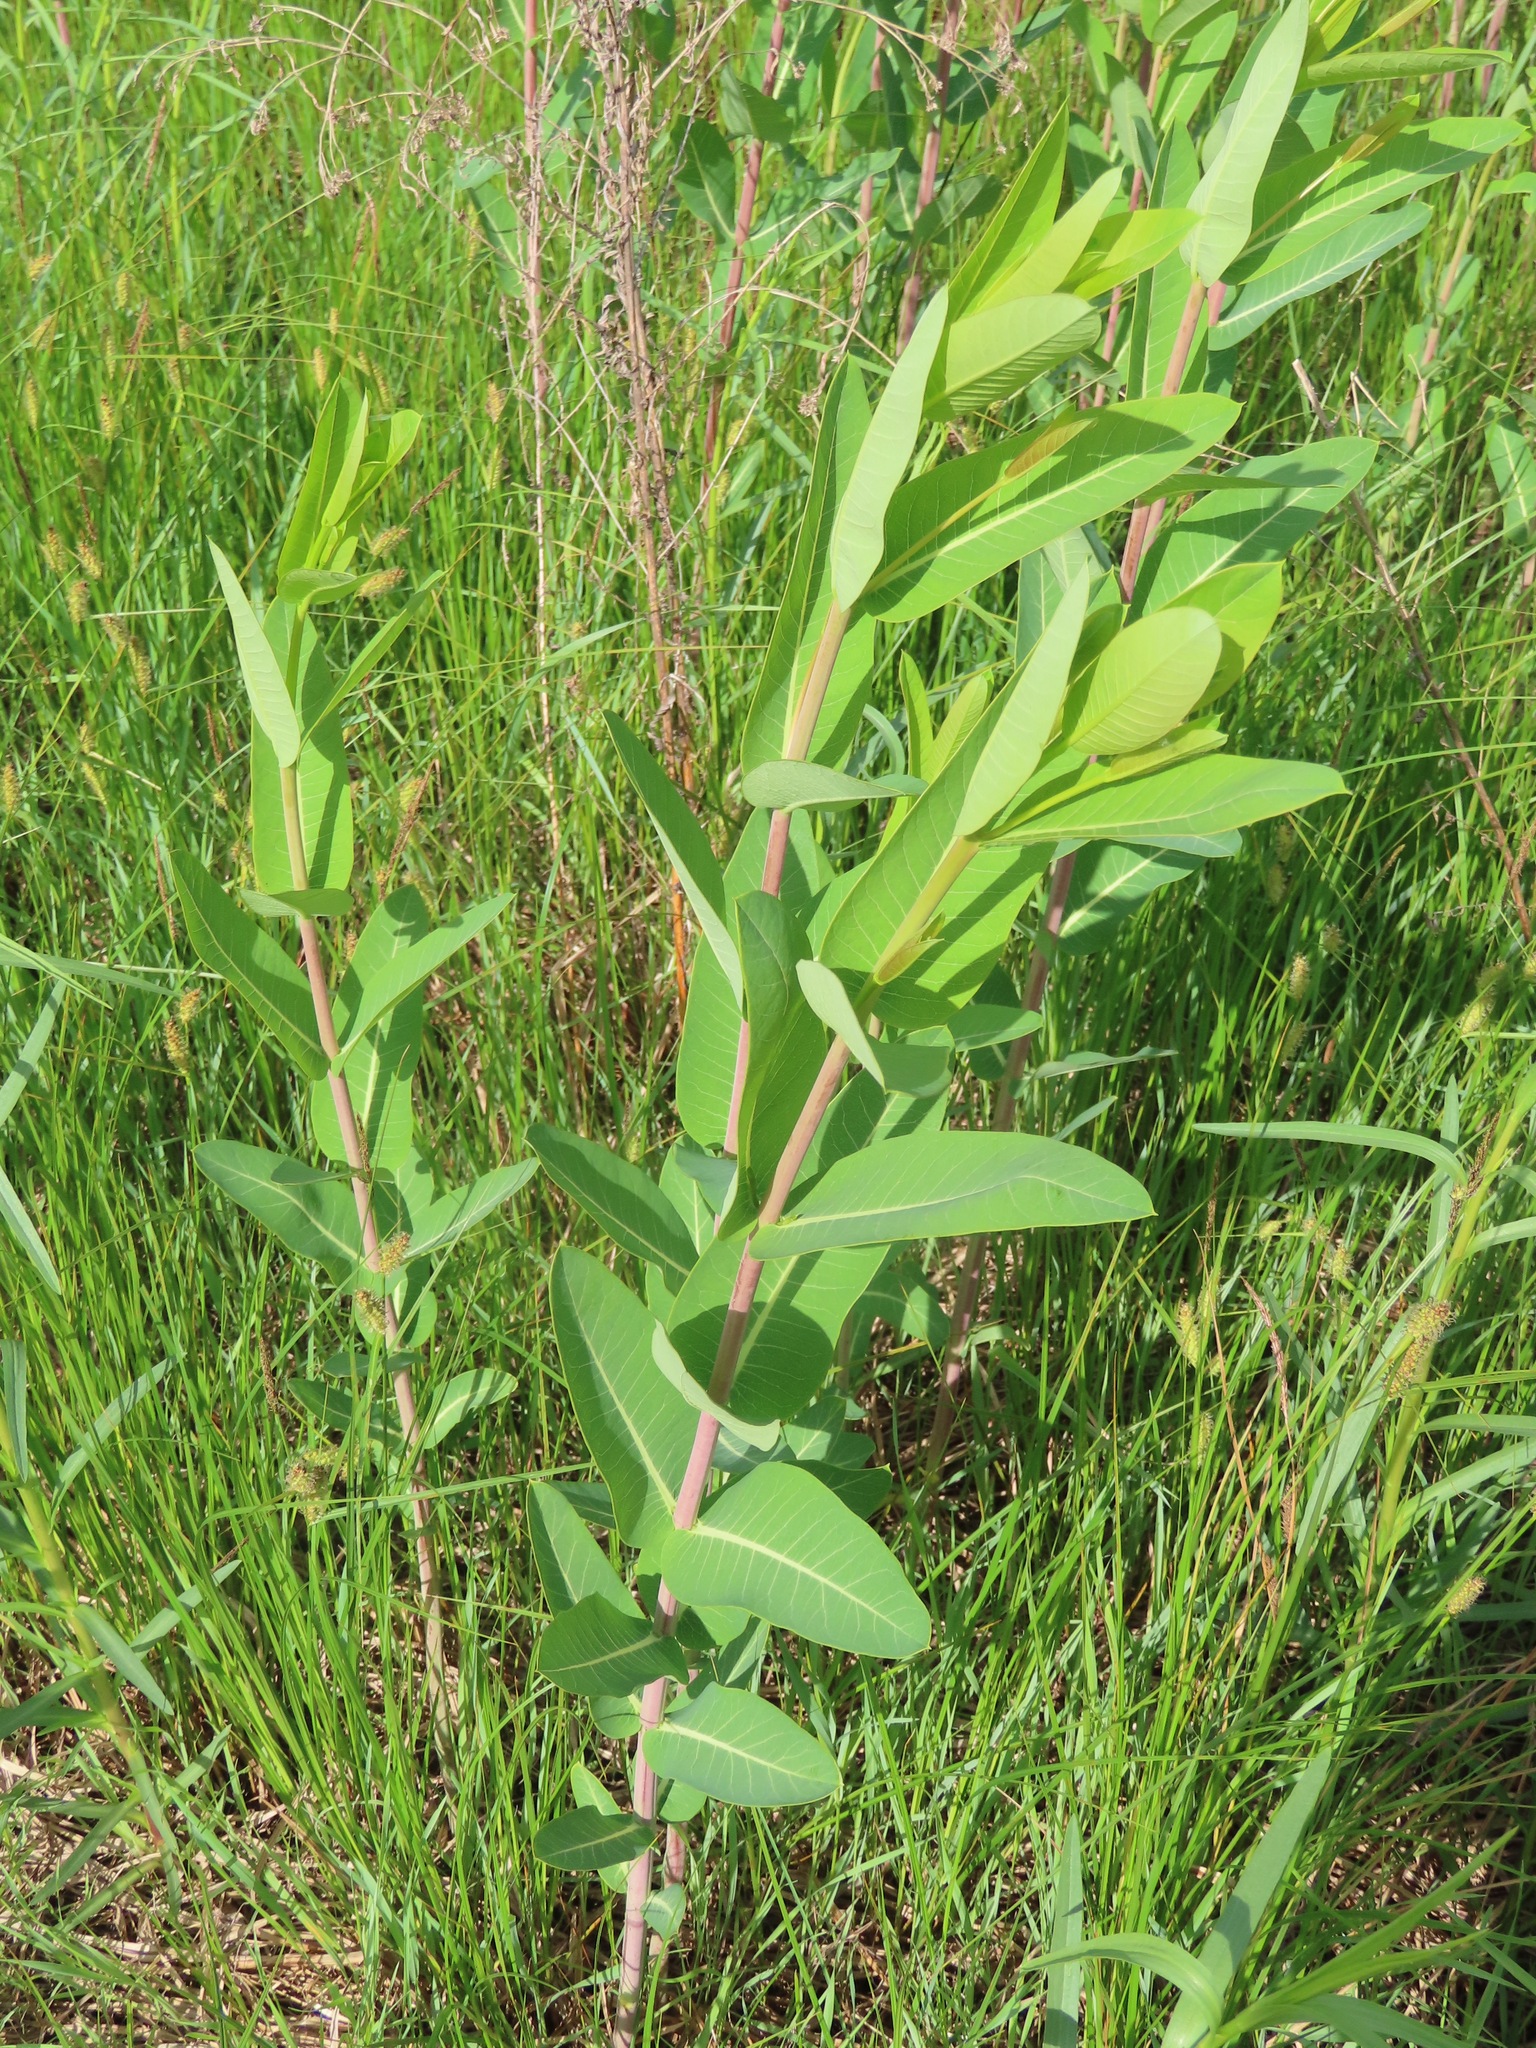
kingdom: Plantae
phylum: Tracheophyta
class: Magnoliopsida
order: Gentianales
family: Apocynaceae
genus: Apocynum
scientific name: Apocynum cannabinum
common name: Hemp dogbane
